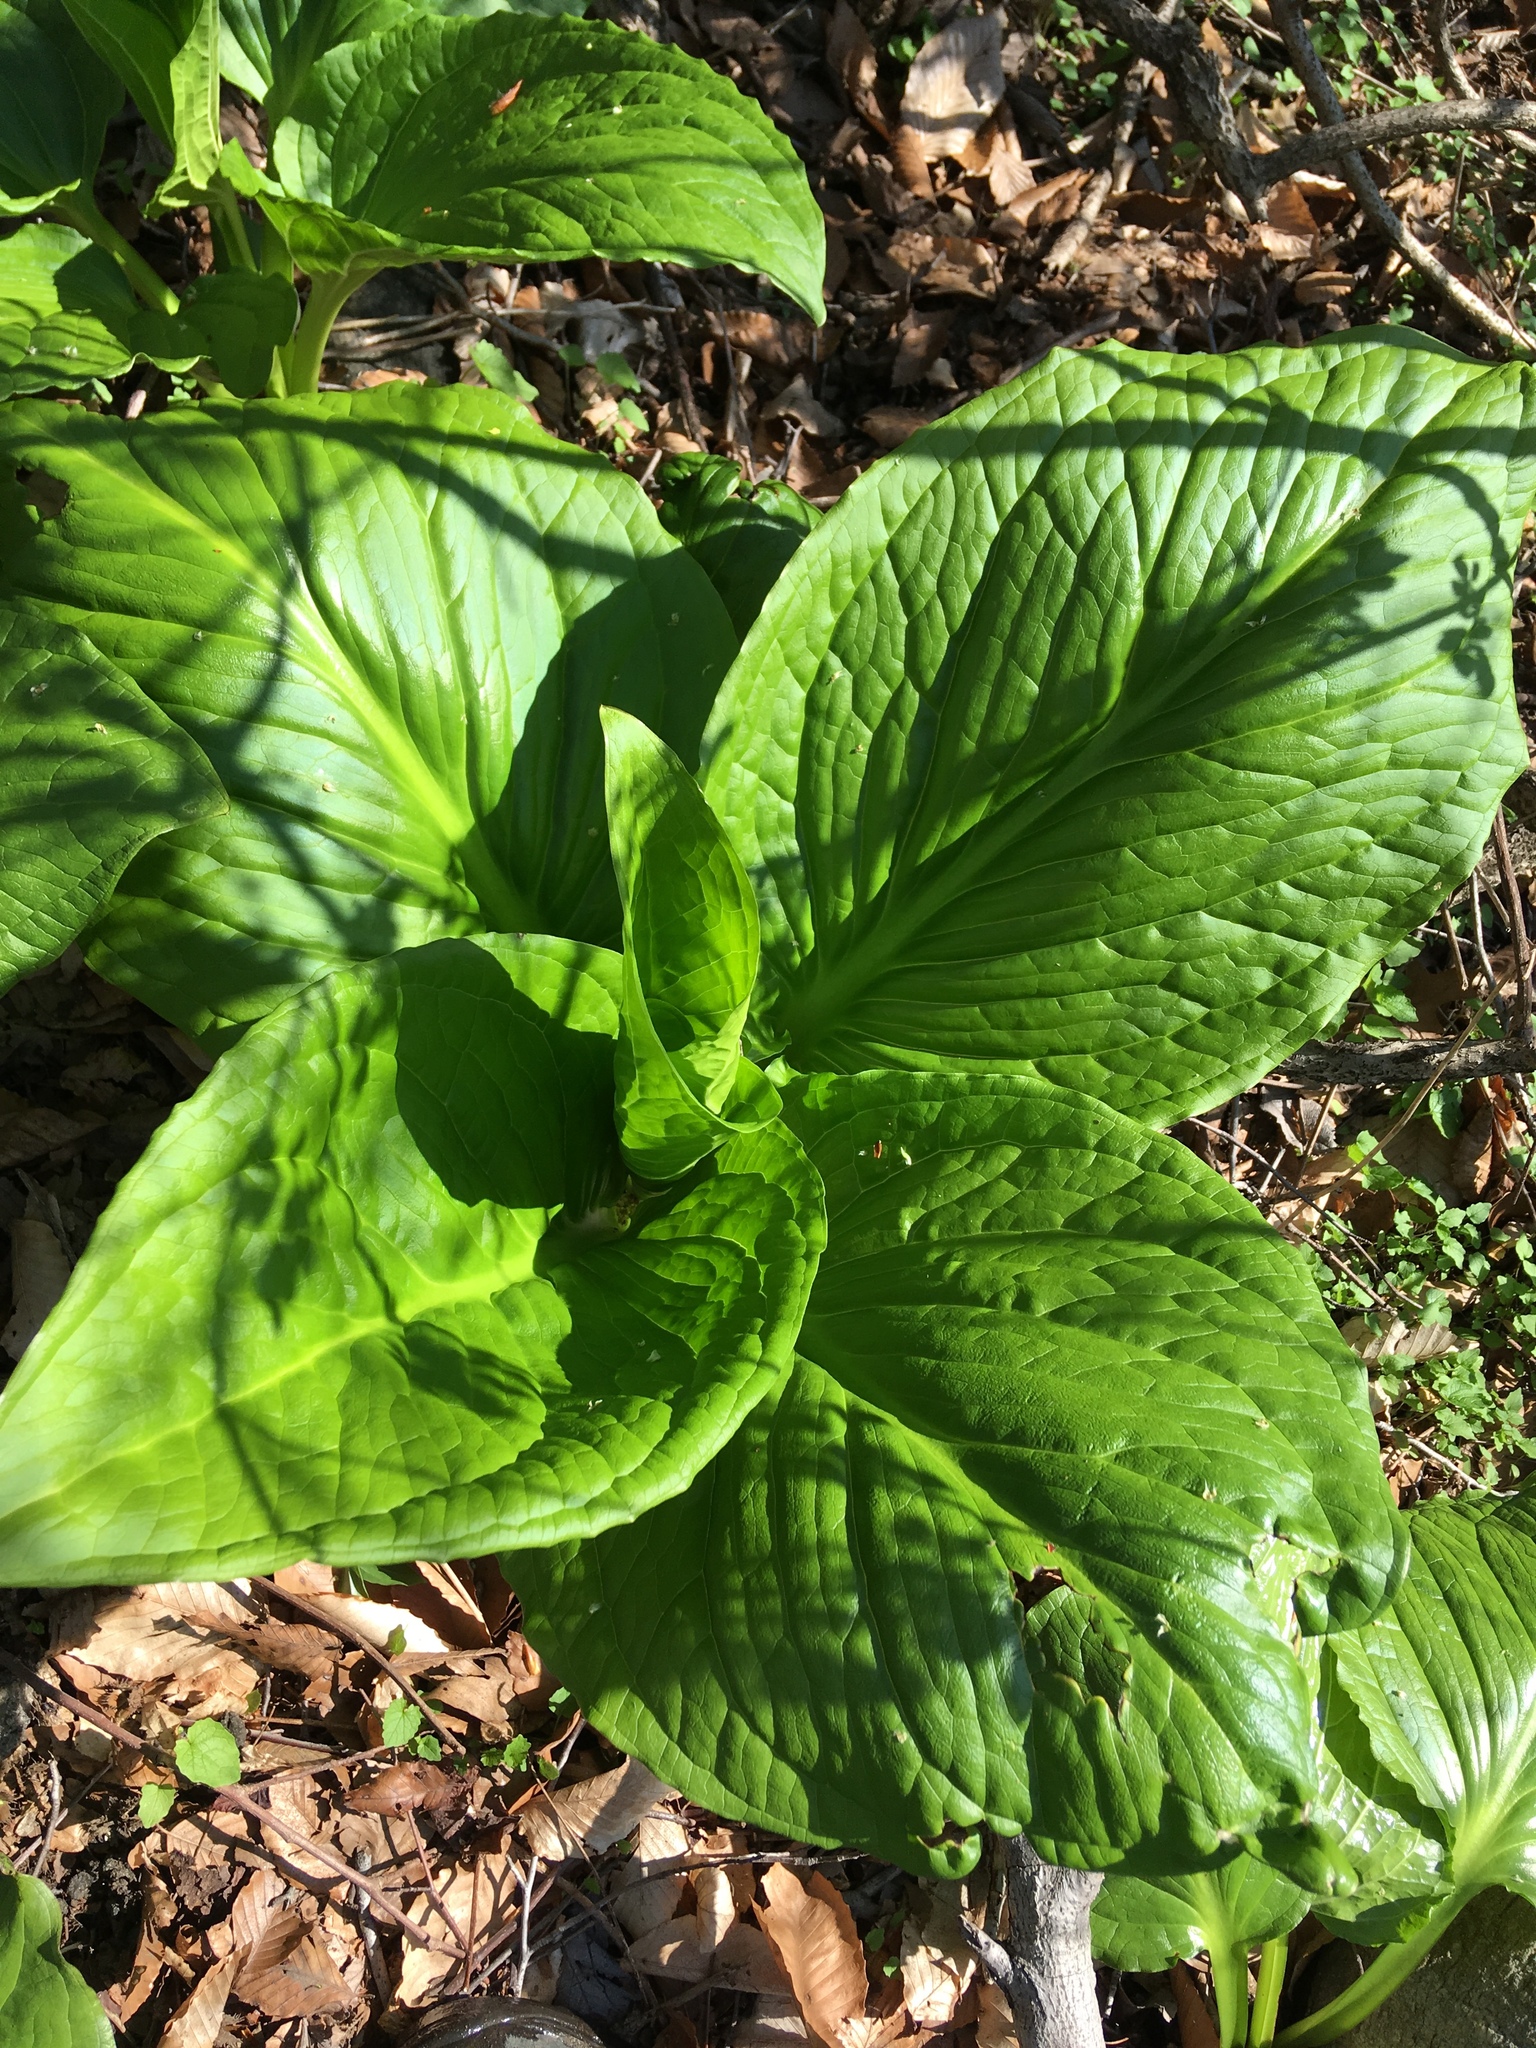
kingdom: Plantae
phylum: Tracheophyta
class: Liliopsida
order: Alismatales
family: Araceae
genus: Symplocarpus
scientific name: Symplocarpus foetidus
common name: Eastern skunk cabbage
